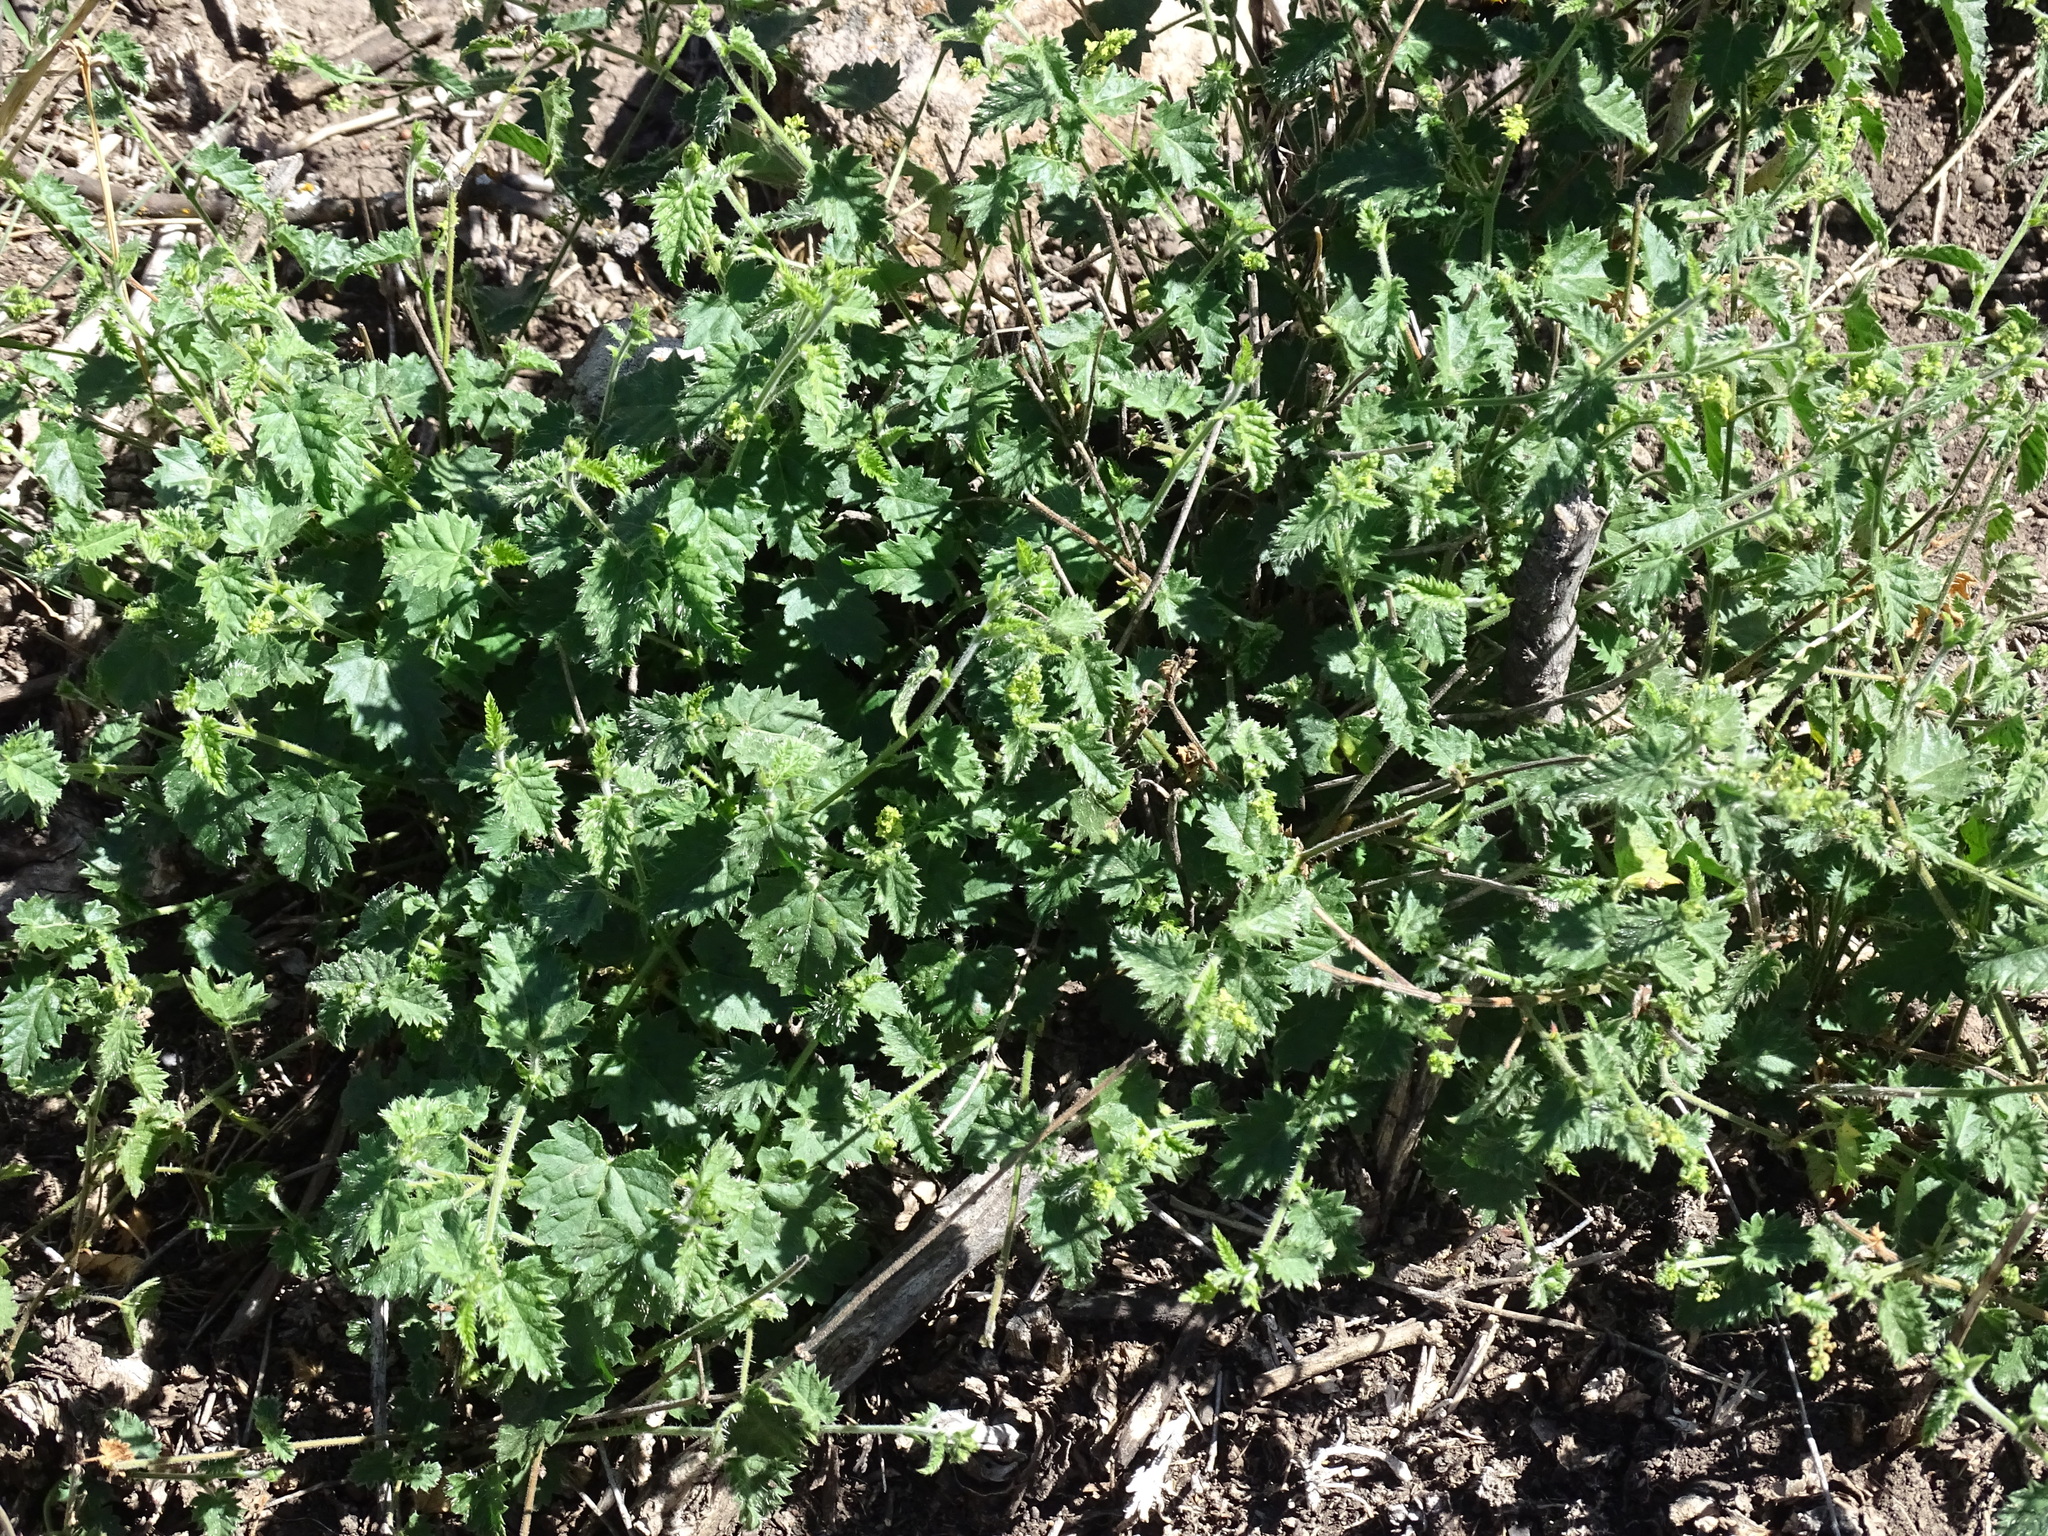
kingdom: Plantae
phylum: Tracheophyta
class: Magnoliopsida
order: Malpighiales
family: Euphorbiaceae
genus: Tragia
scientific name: Tragia nepetifolia
